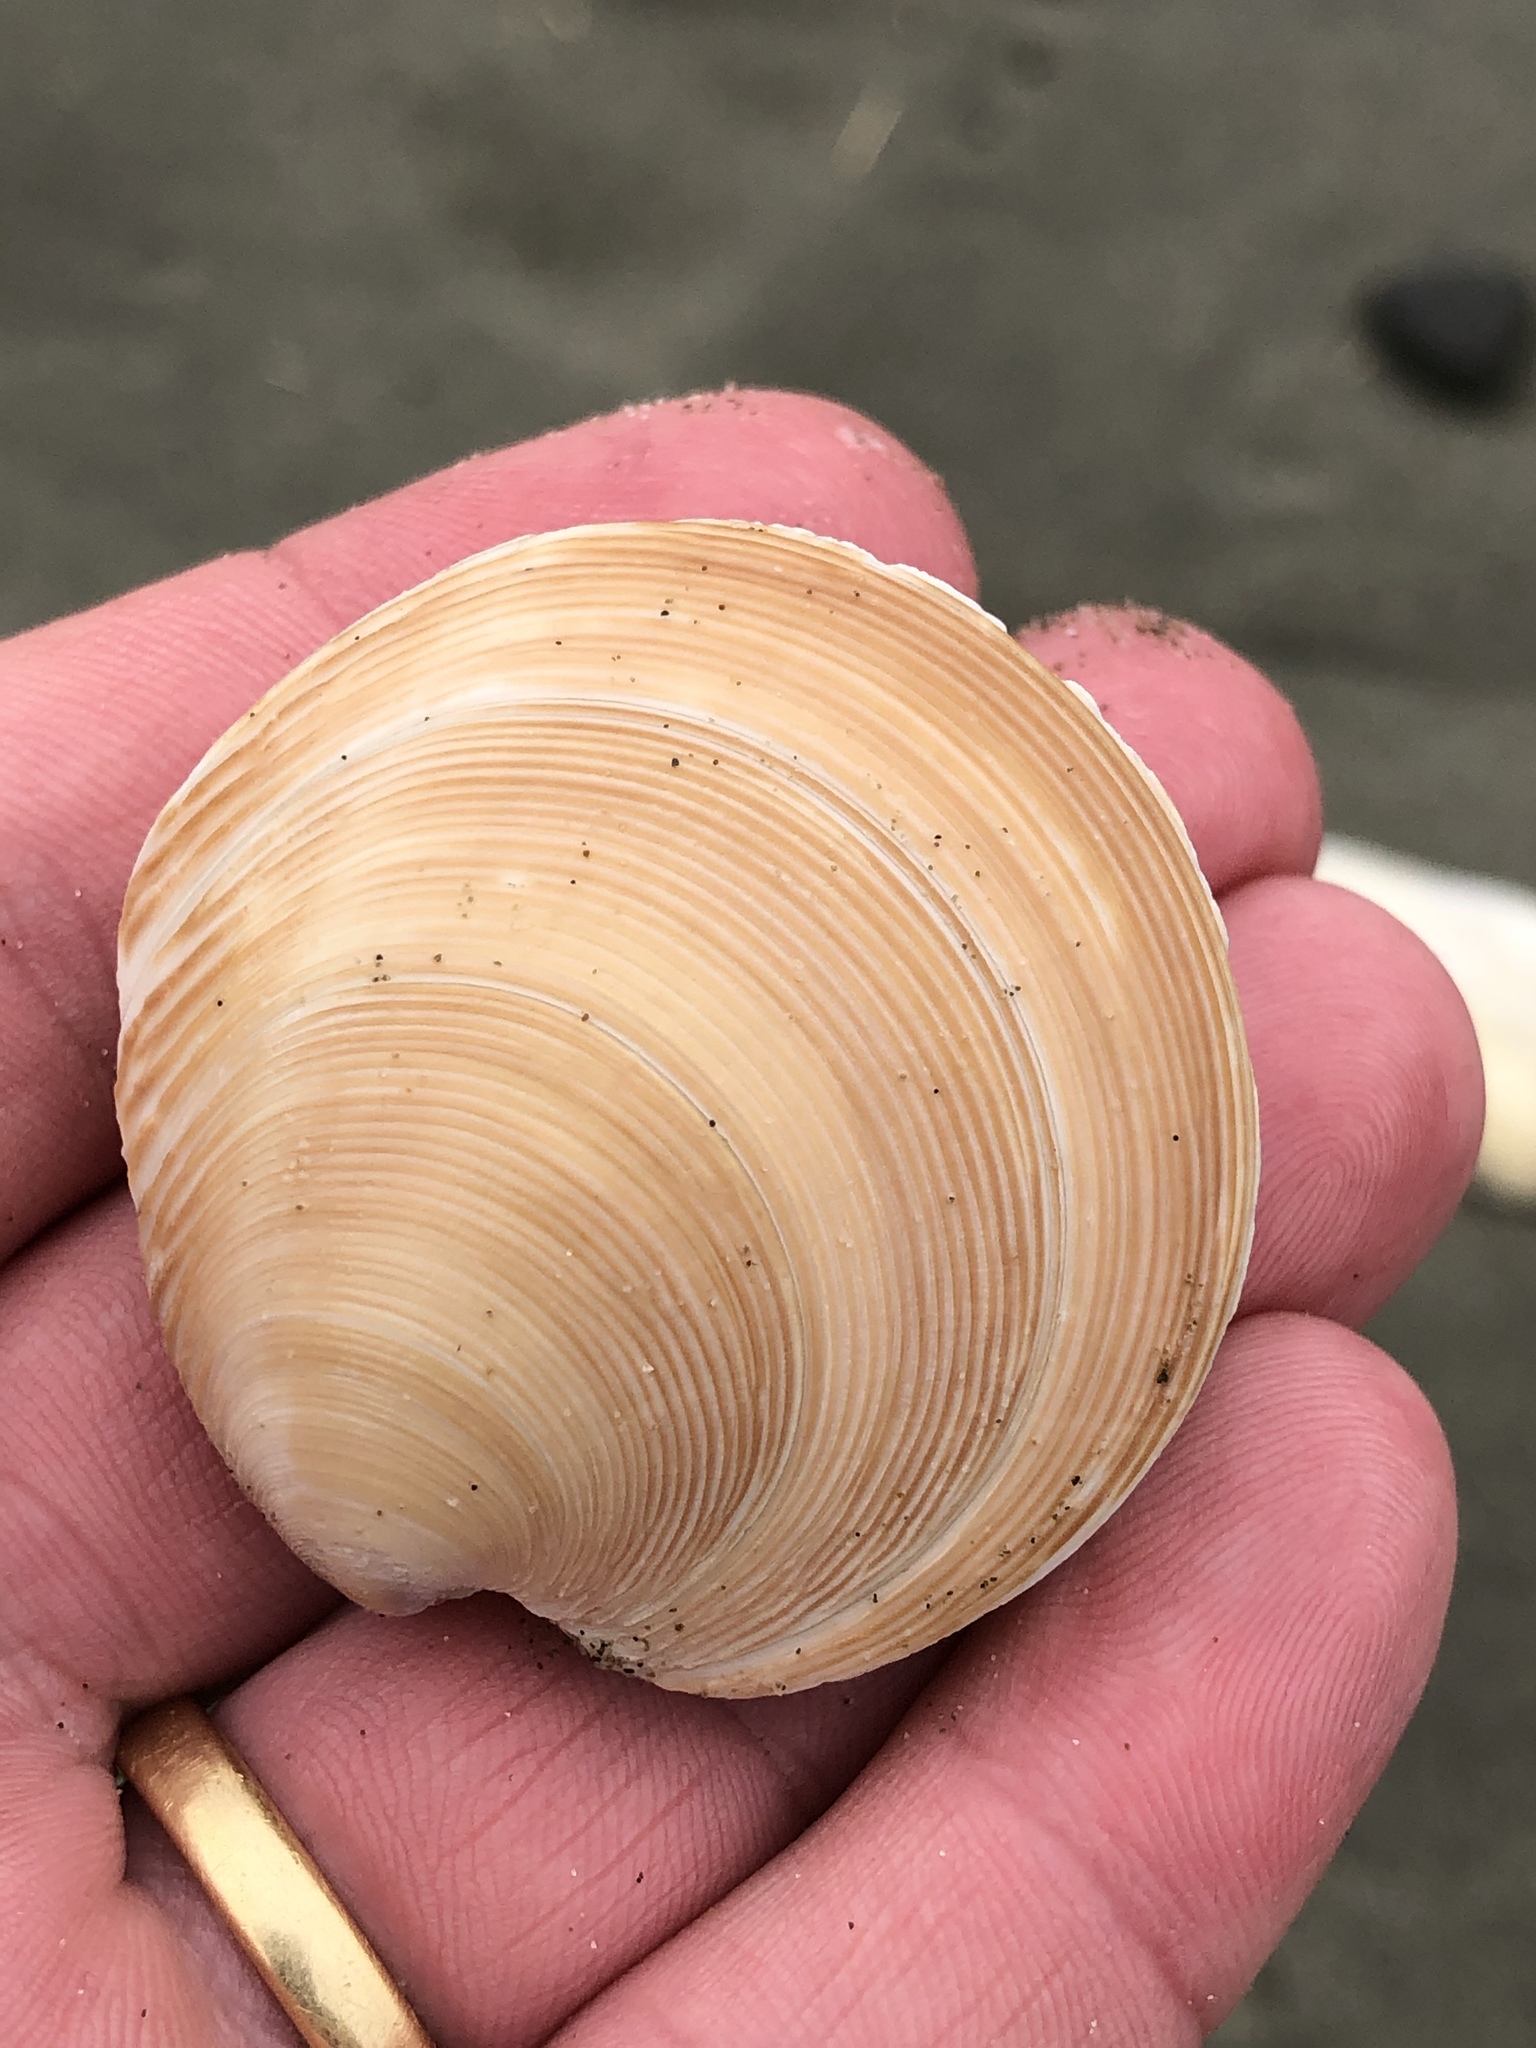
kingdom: Animalia
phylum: Mollusca
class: Bivalvia
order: Venerida
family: Veneridae
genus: Dosinia
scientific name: Dosinia anus
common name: Old-woman dosinia
